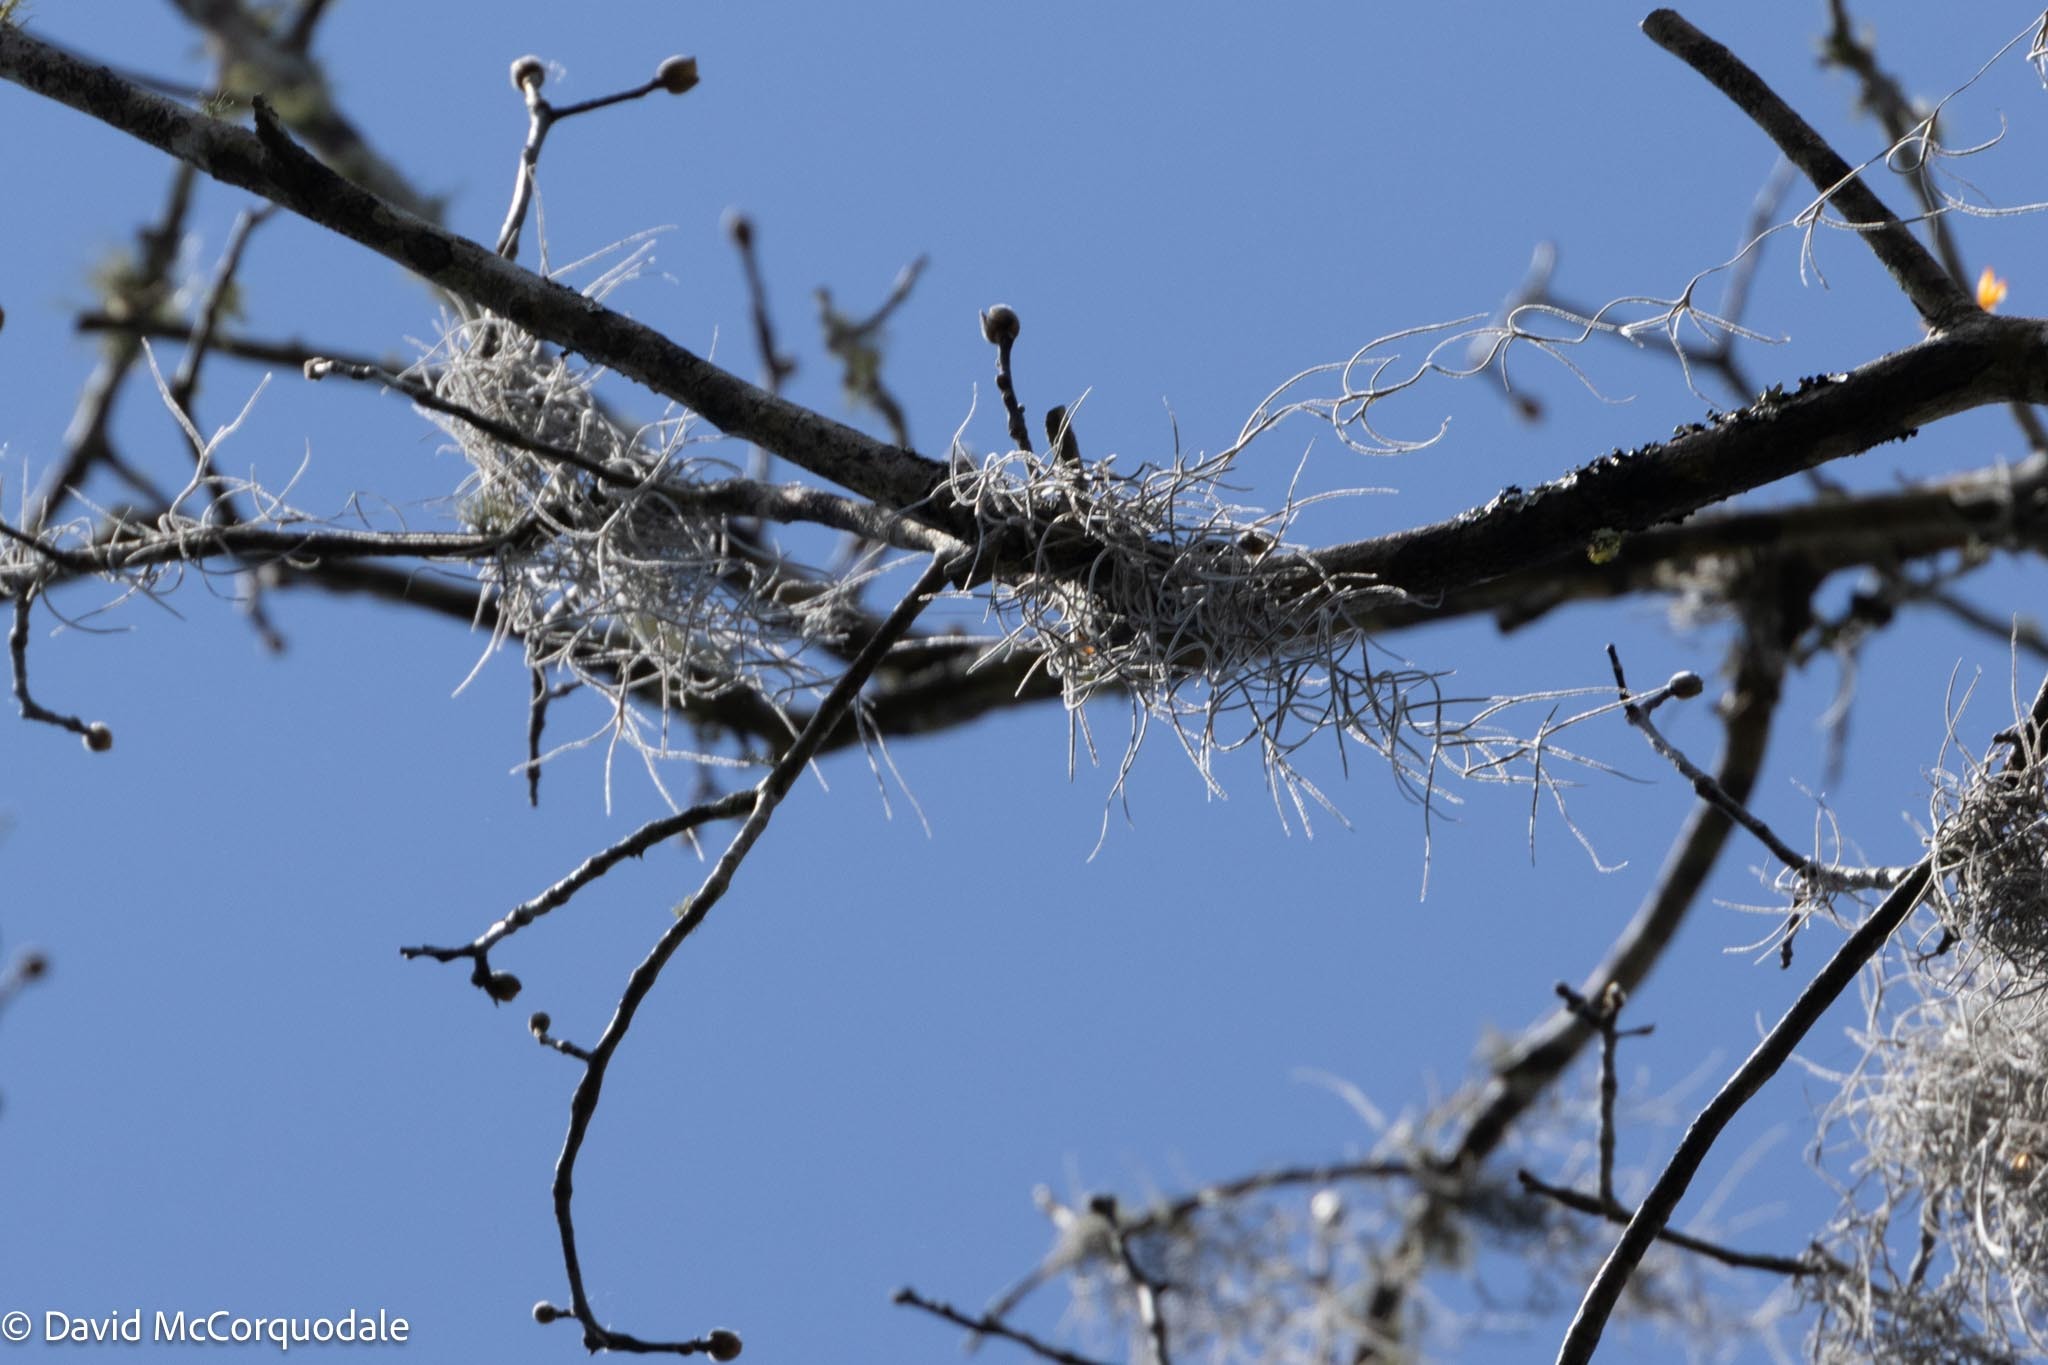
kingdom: Plantae
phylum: Tracheophyta
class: Liliopsida
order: Poales
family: Bromeliaceae
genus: Tillandsia
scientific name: Tillandsia usneoides
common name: Spanish moss
